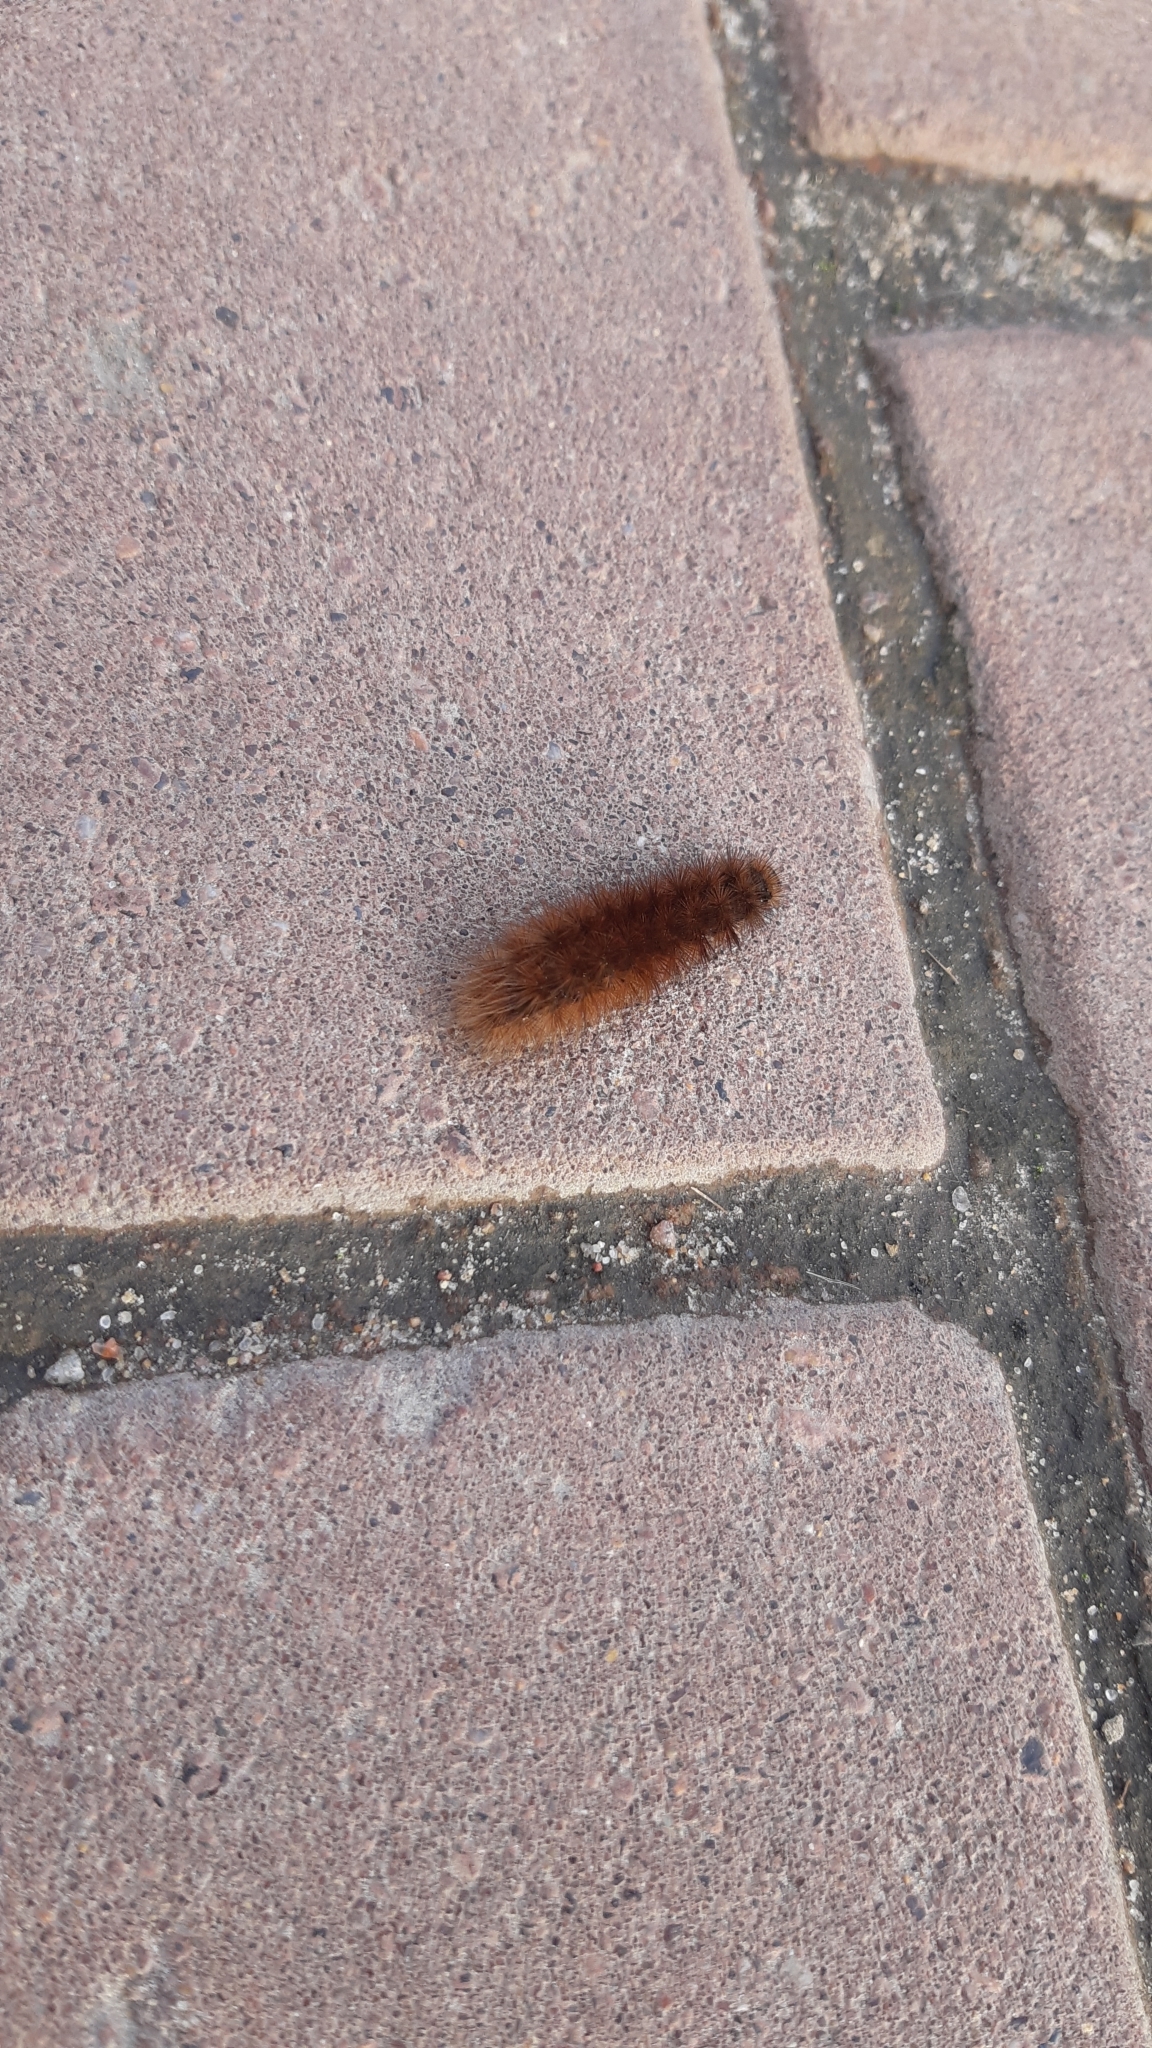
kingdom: Animalia
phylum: Arthropoda
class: Insecta
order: Lepidoptera
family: Erebidae
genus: Phragmatobia
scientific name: Phragmatobia fuliginosa
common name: Ruby tiger
